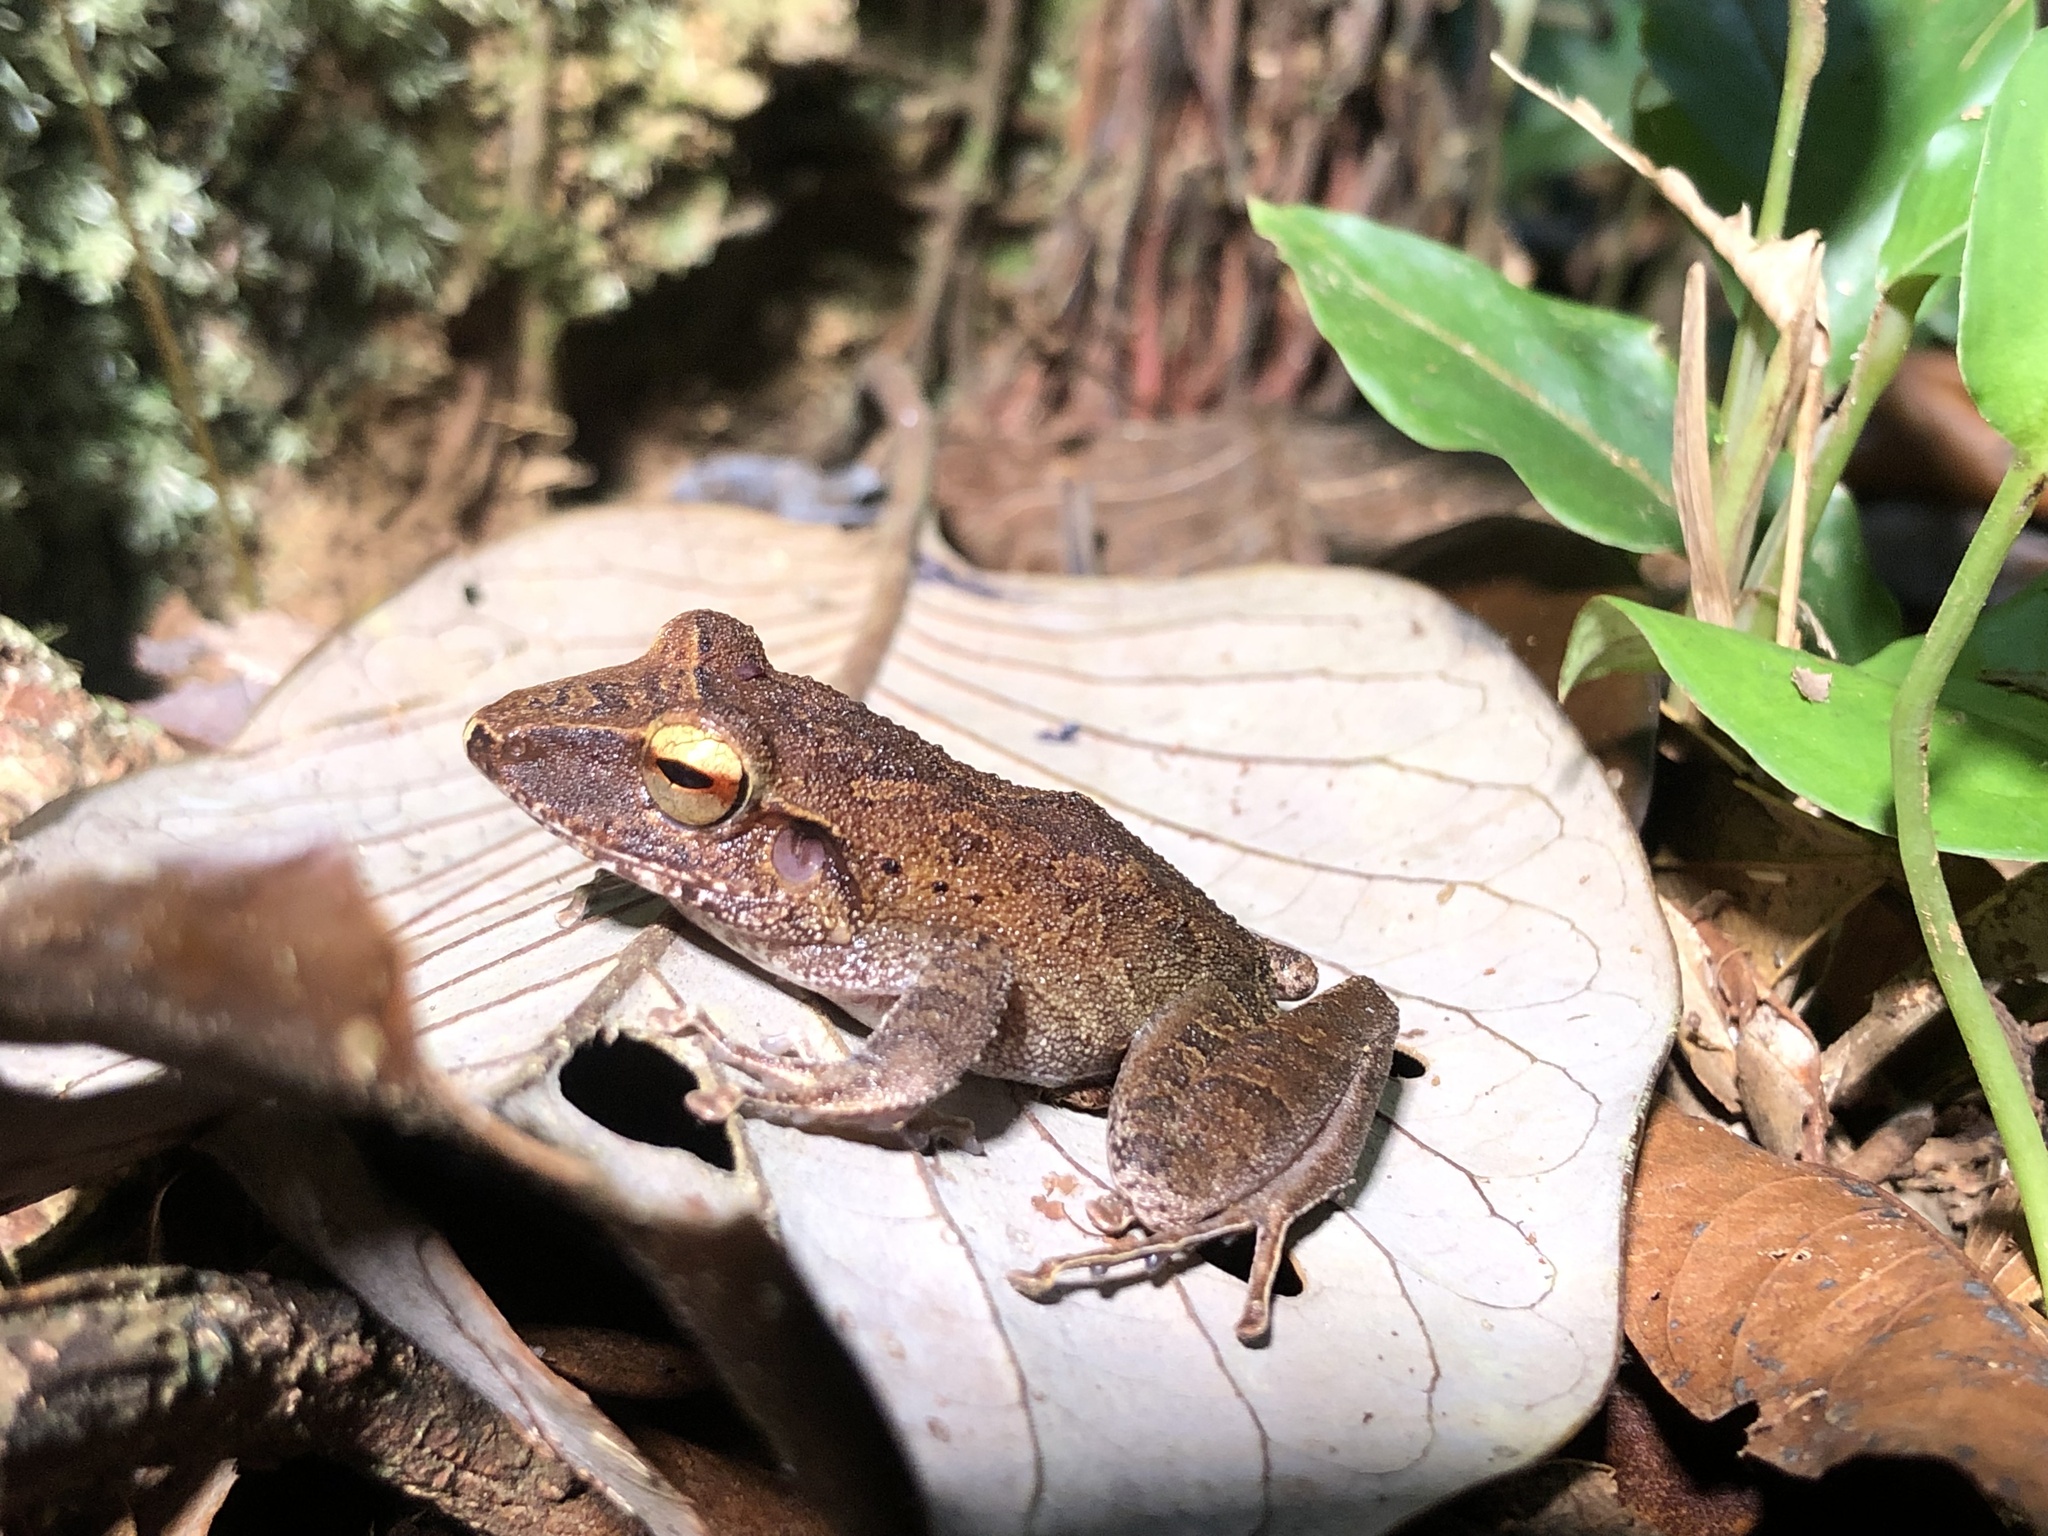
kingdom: Animalia
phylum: Chordata
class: Amphibia
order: Anura
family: Craugastoridae
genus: Craugastor
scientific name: Craugastor crassidigitus
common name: Isla bonita robber frog
